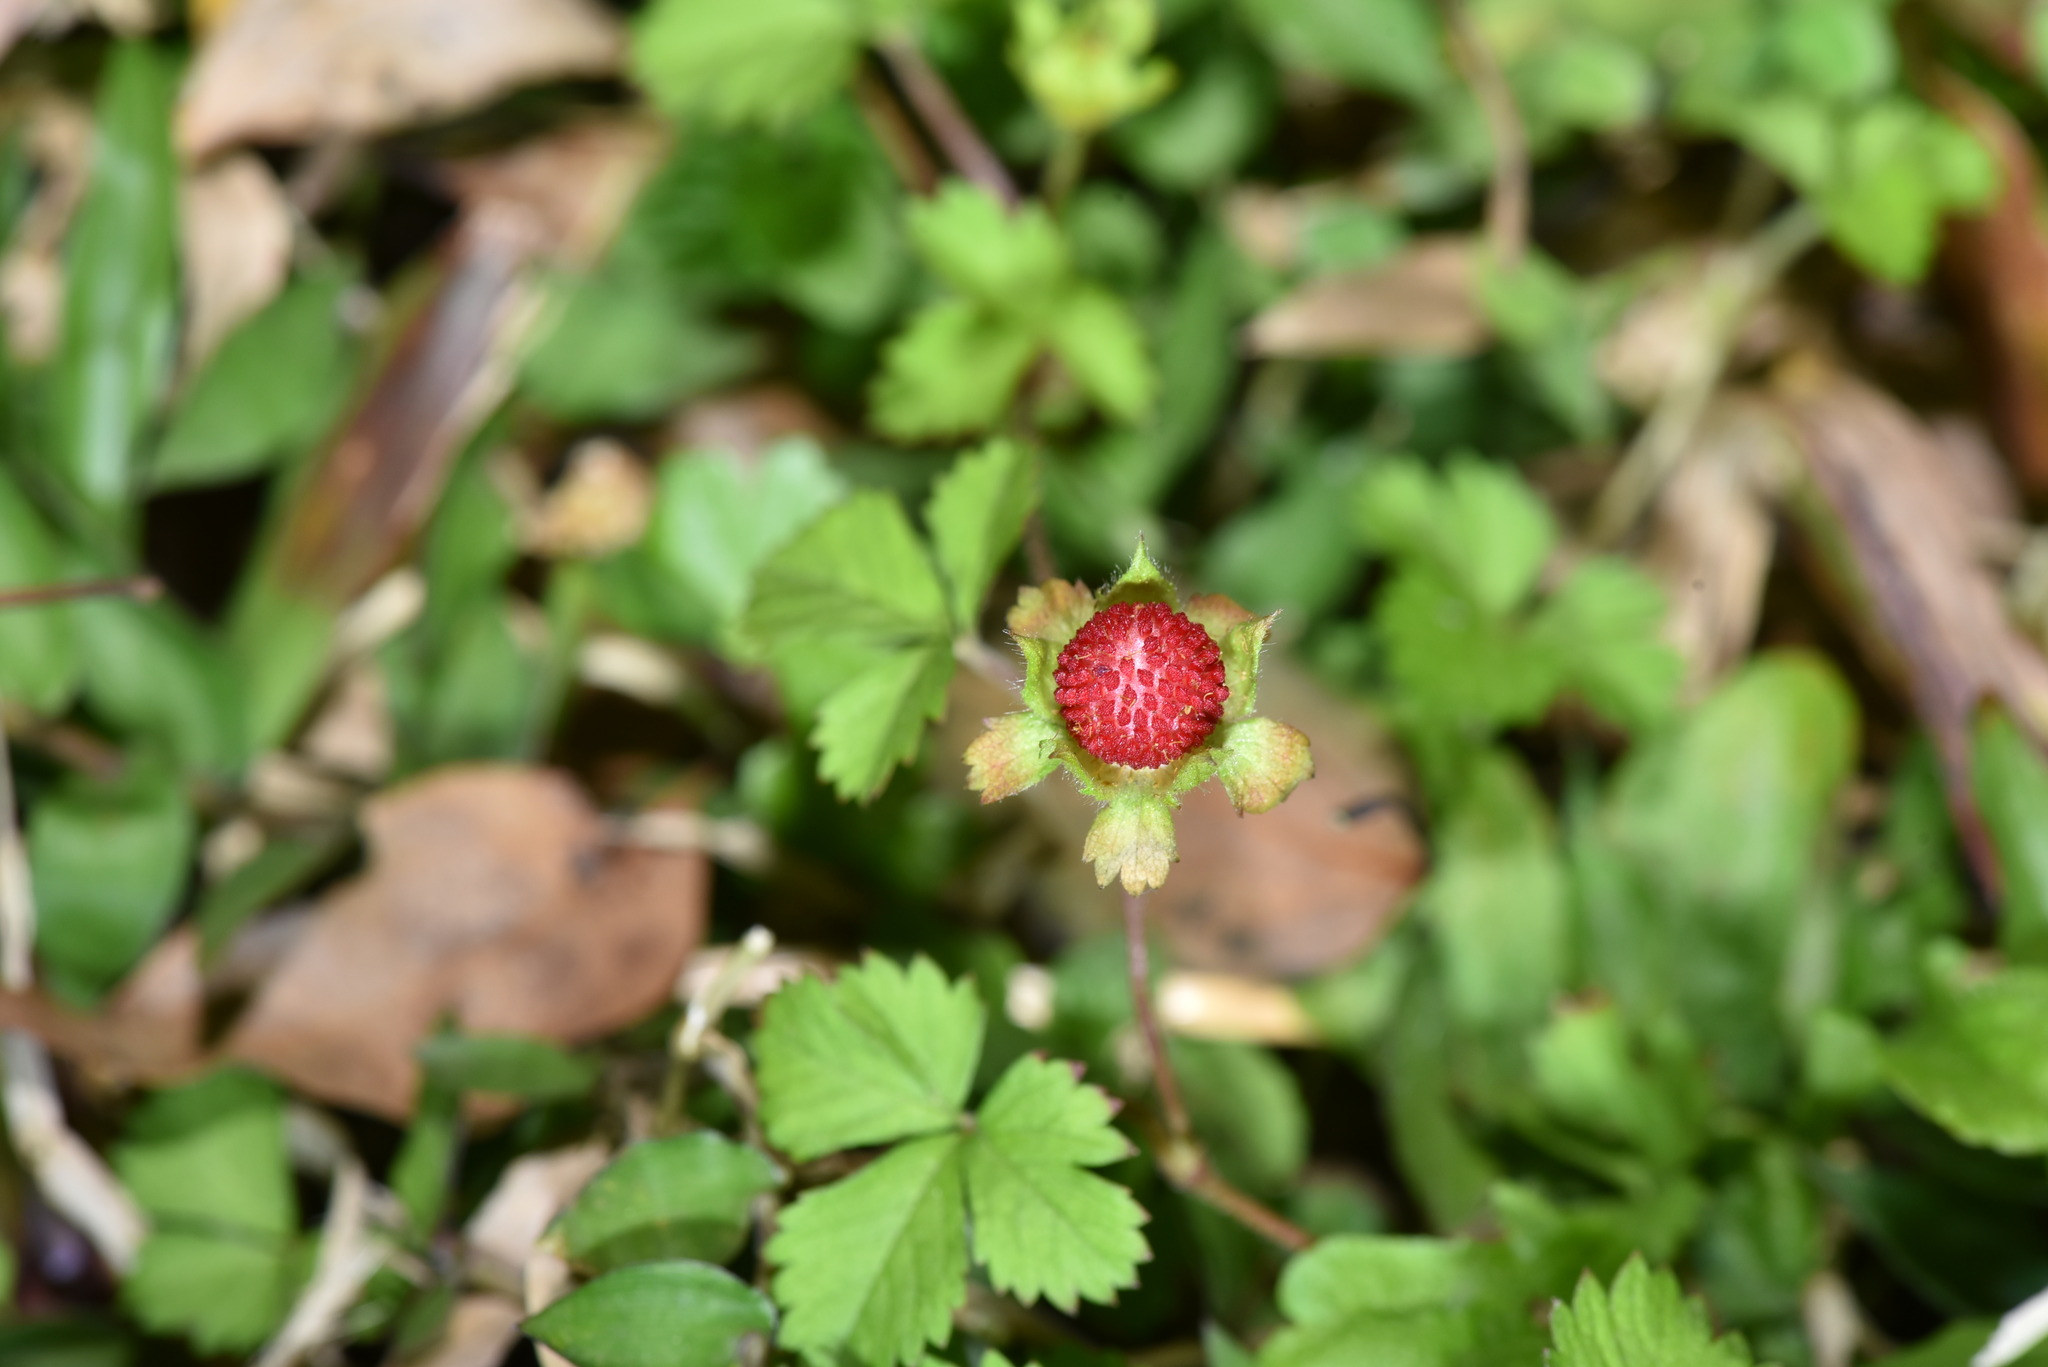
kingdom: Plantae
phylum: Tracheophyta
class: Magnoliopsida
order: Rosales
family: Rosaceae
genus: Potentilla
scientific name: Potentilla wallichiana
